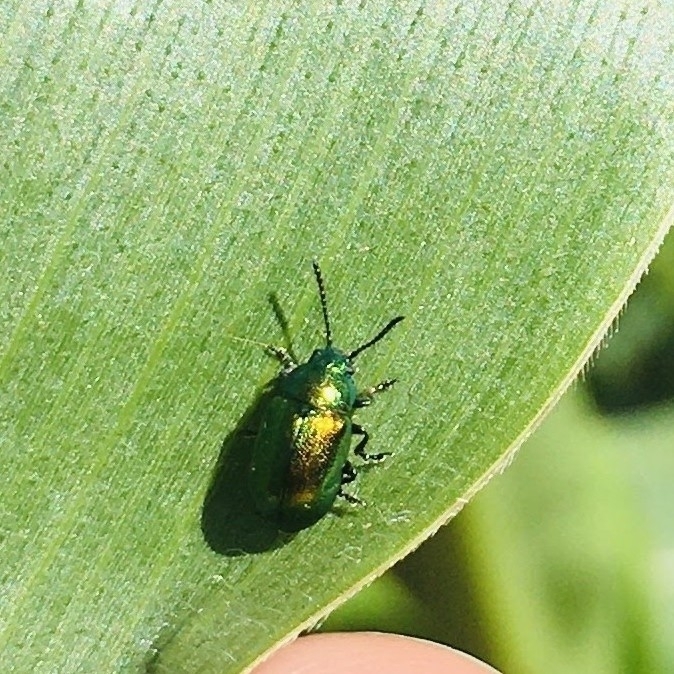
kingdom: Animalia
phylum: Arthropoda
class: Insecta
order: Coleoptera
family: Chrysomelidae
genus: Gastrophysa
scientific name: Gastrophysa viridula
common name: Green dock beetle
